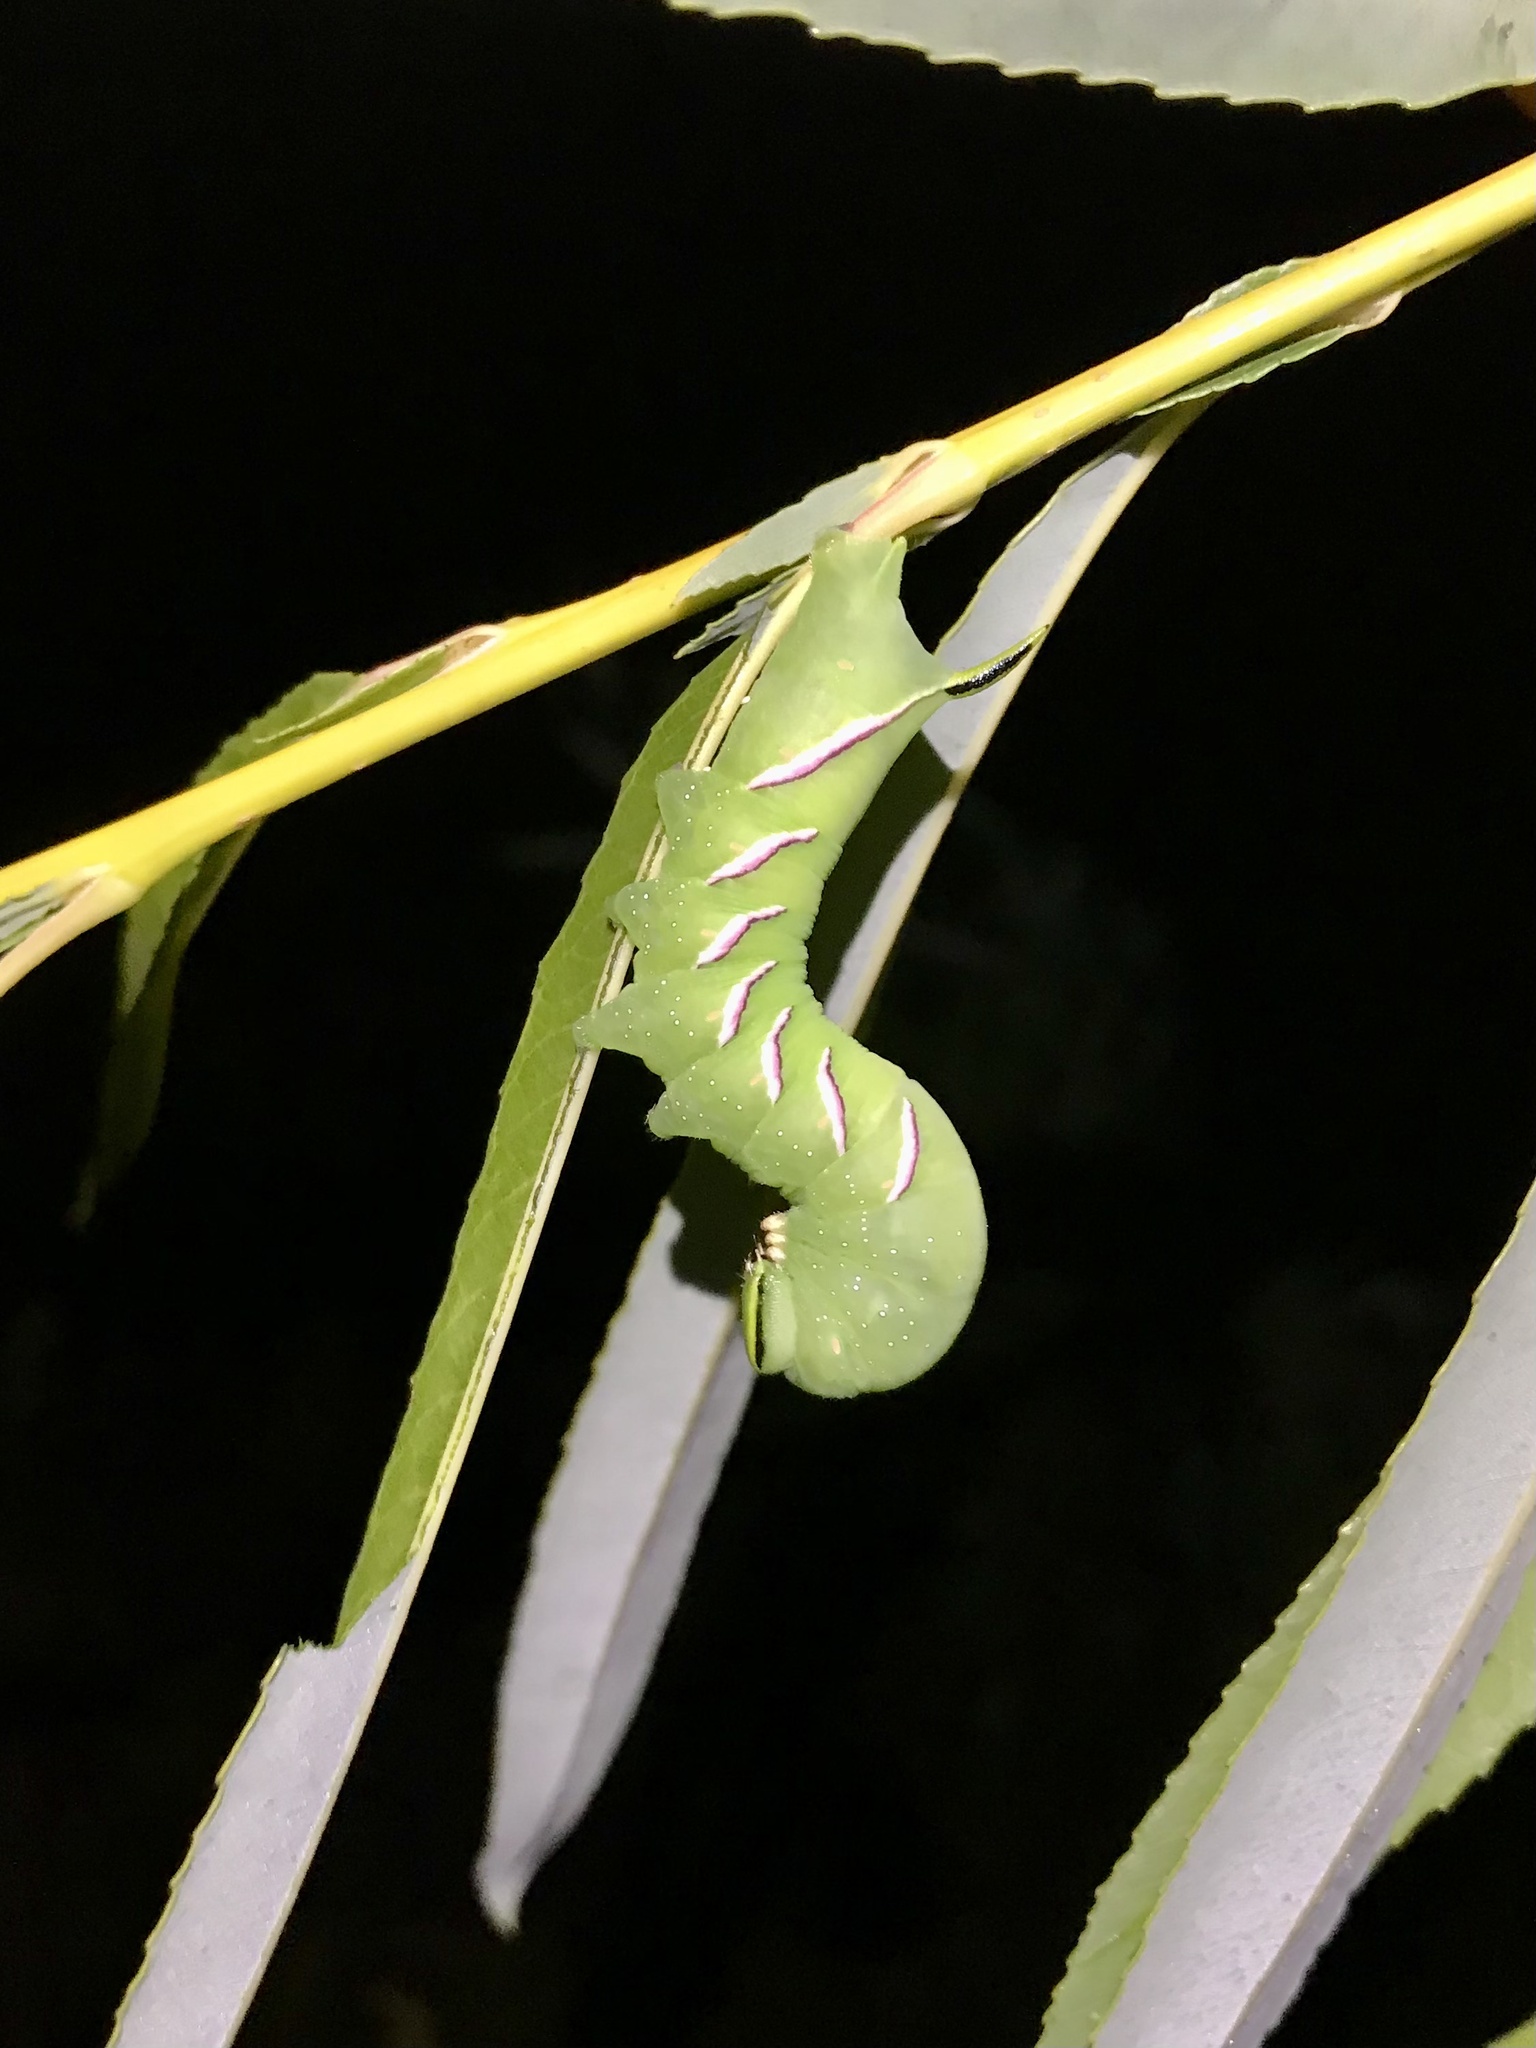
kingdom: Animalia
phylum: Arthropoda
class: Insecta
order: Lepidoptera
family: Sphingidae
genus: Sphinx
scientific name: Sphinx luscitiosa
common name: Clemen's sphinx
